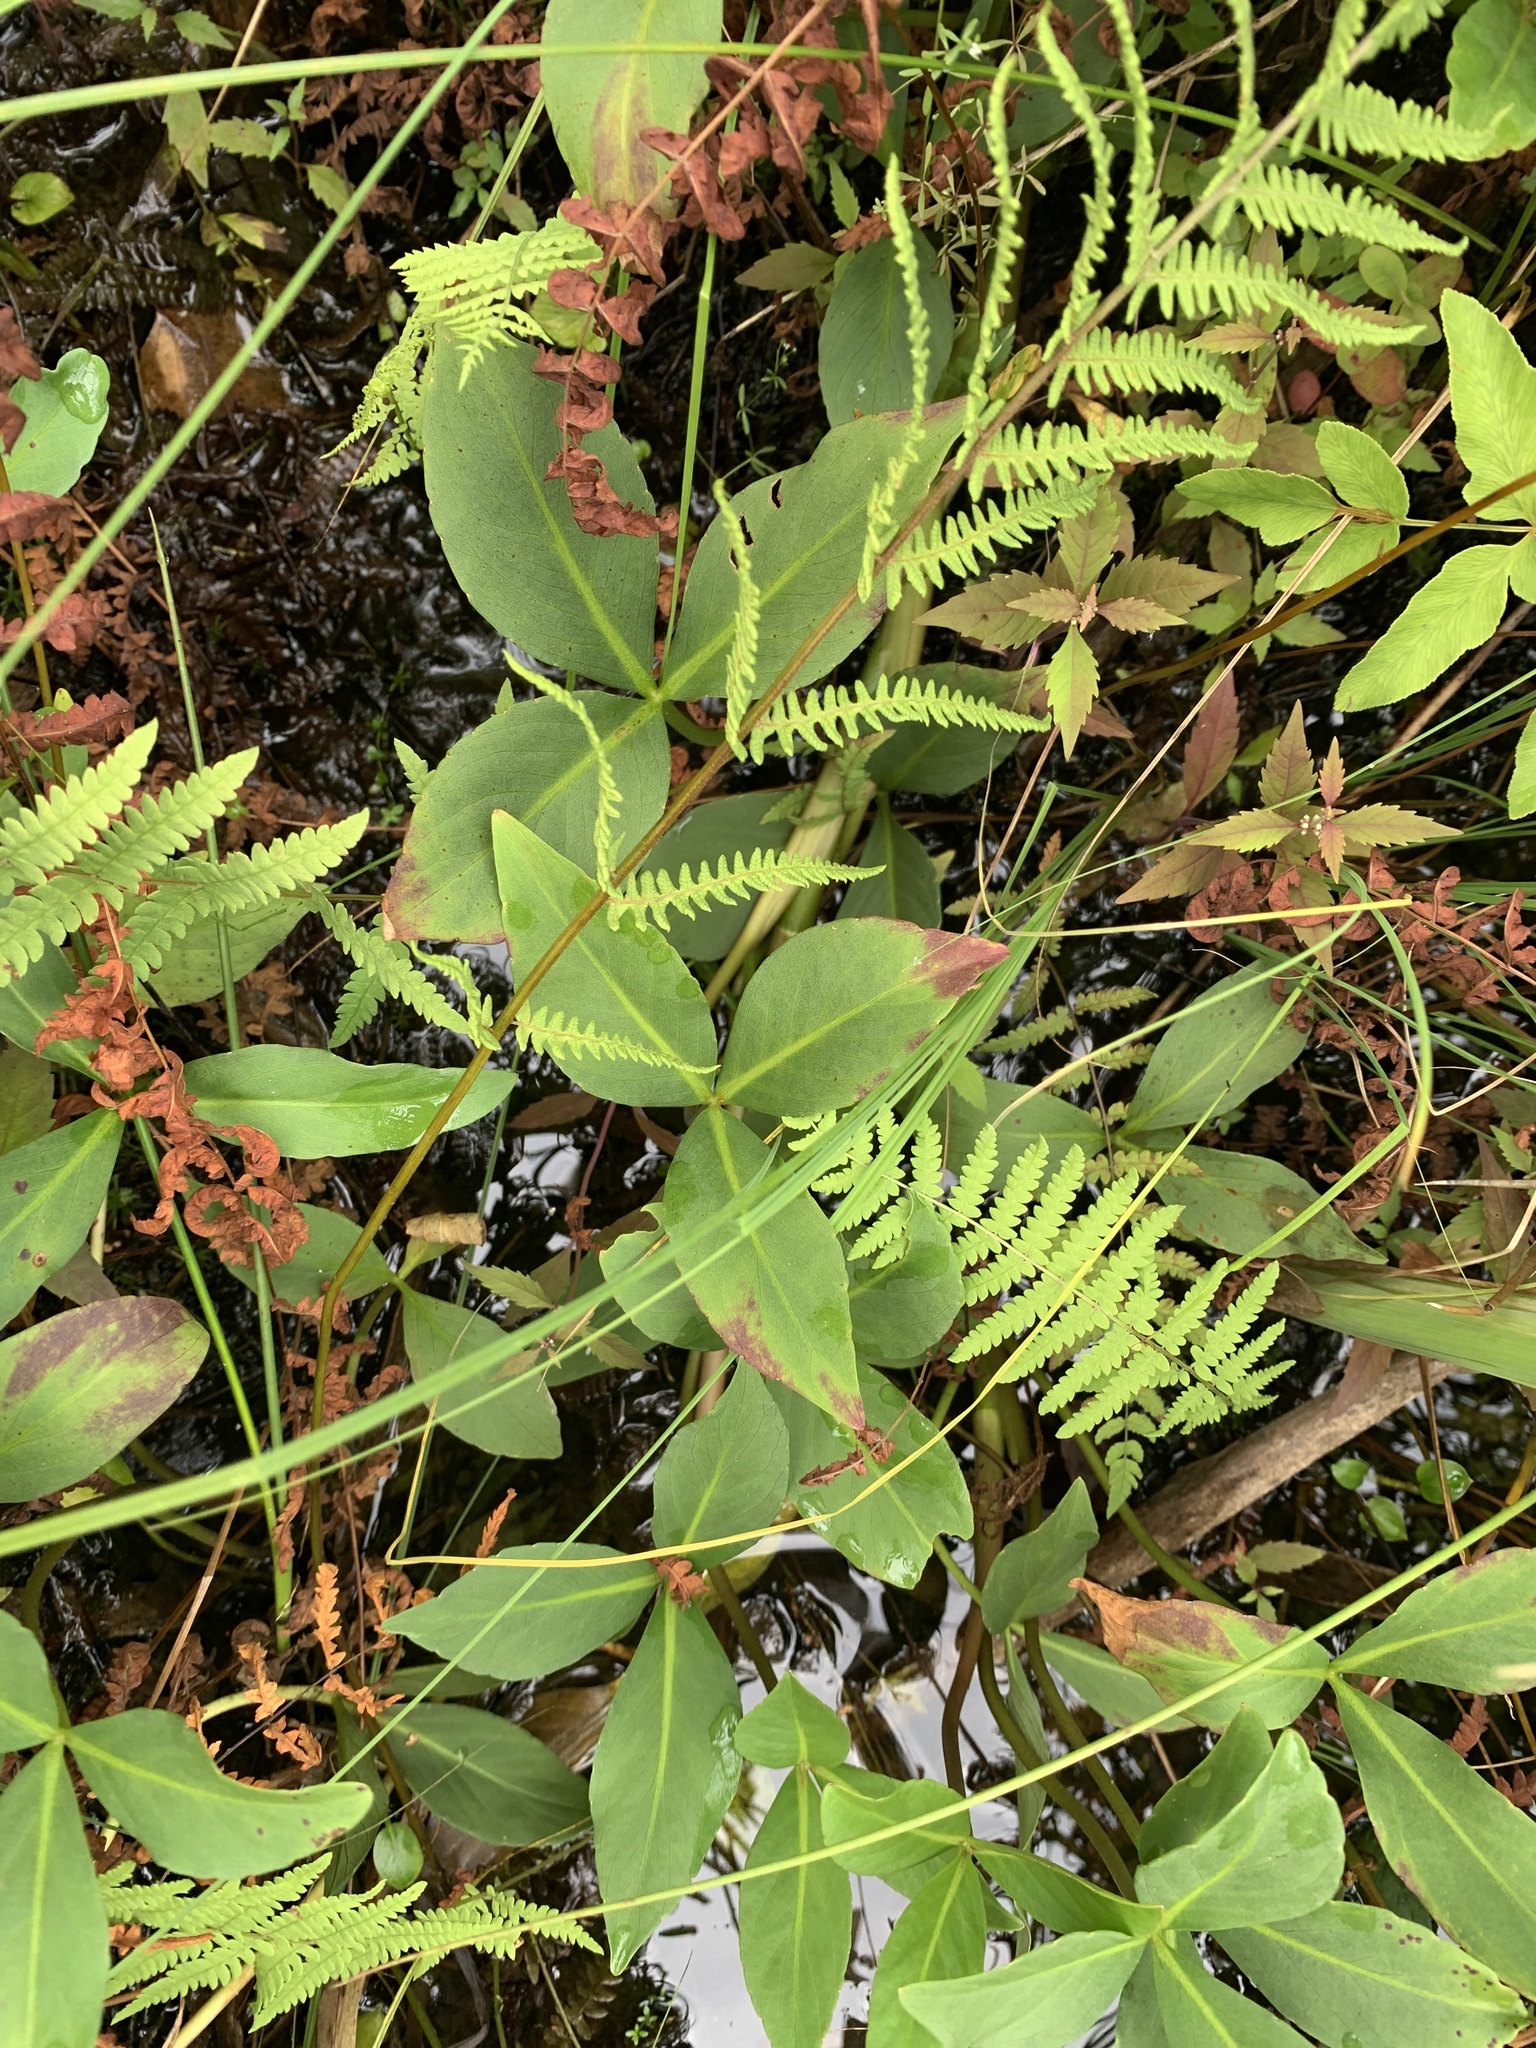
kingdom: Plantae
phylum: Tracheophyta
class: Magnoliopsida
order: Asterales
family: Menyanthaceae
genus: Menyanthes
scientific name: Menyanthes trifoliata
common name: Bogbean
